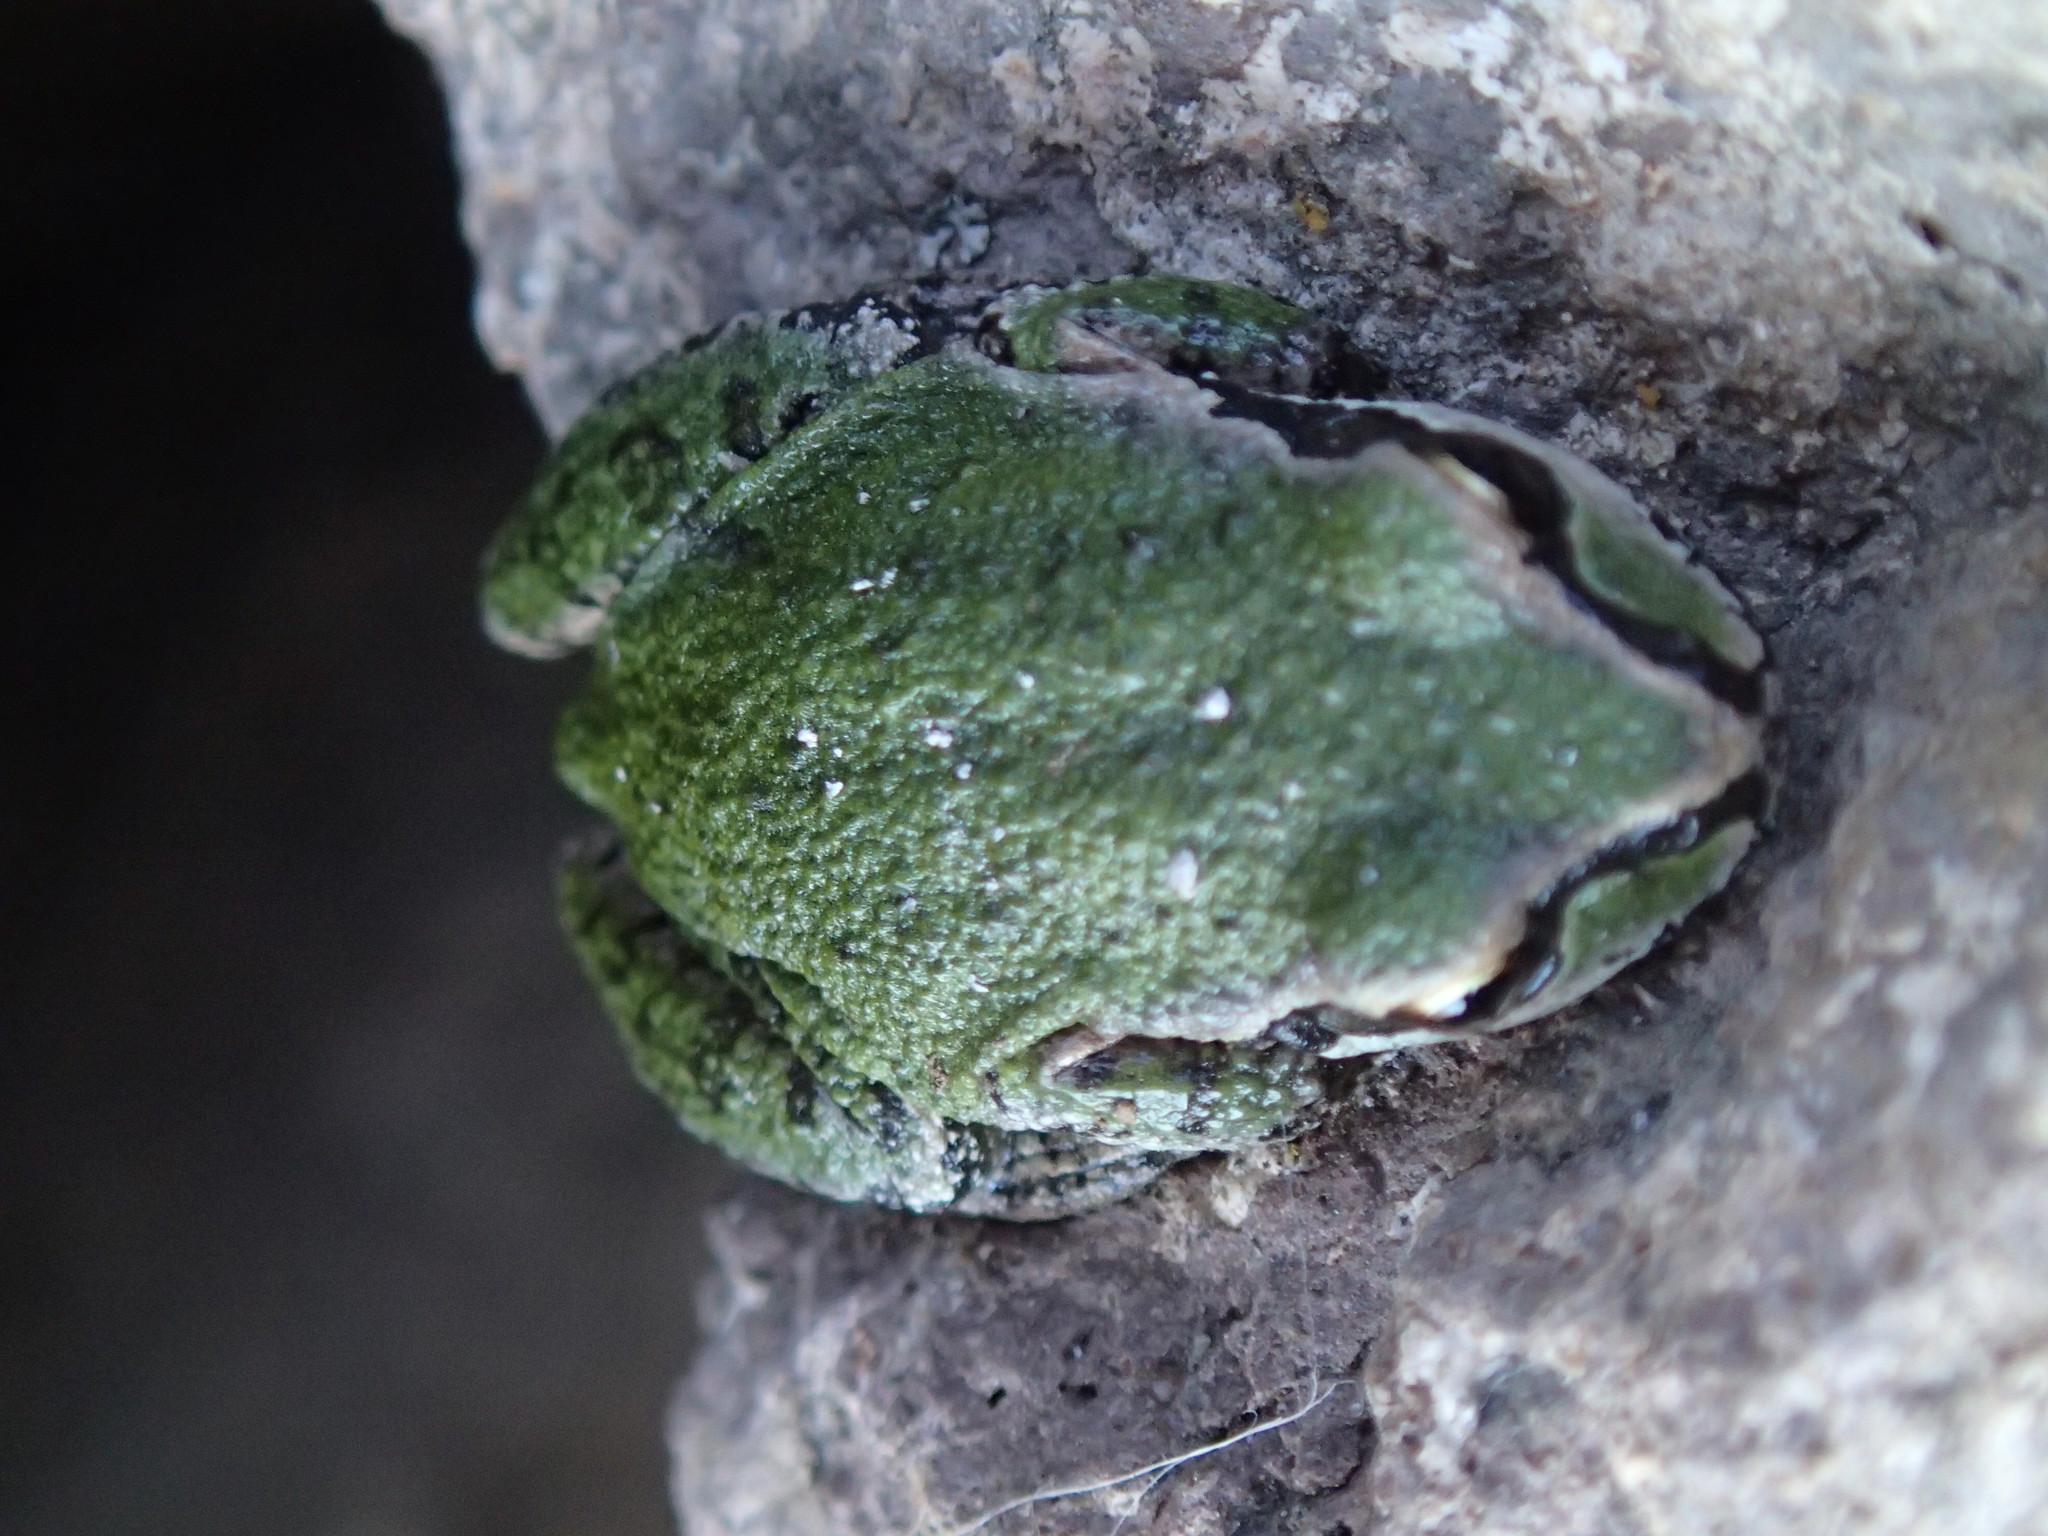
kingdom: Animalia
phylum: Chordata
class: Amphibia
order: Anura
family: Hylidae
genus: Pseudacris
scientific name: Pseudacris regilla
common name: Pacific chorus frog
